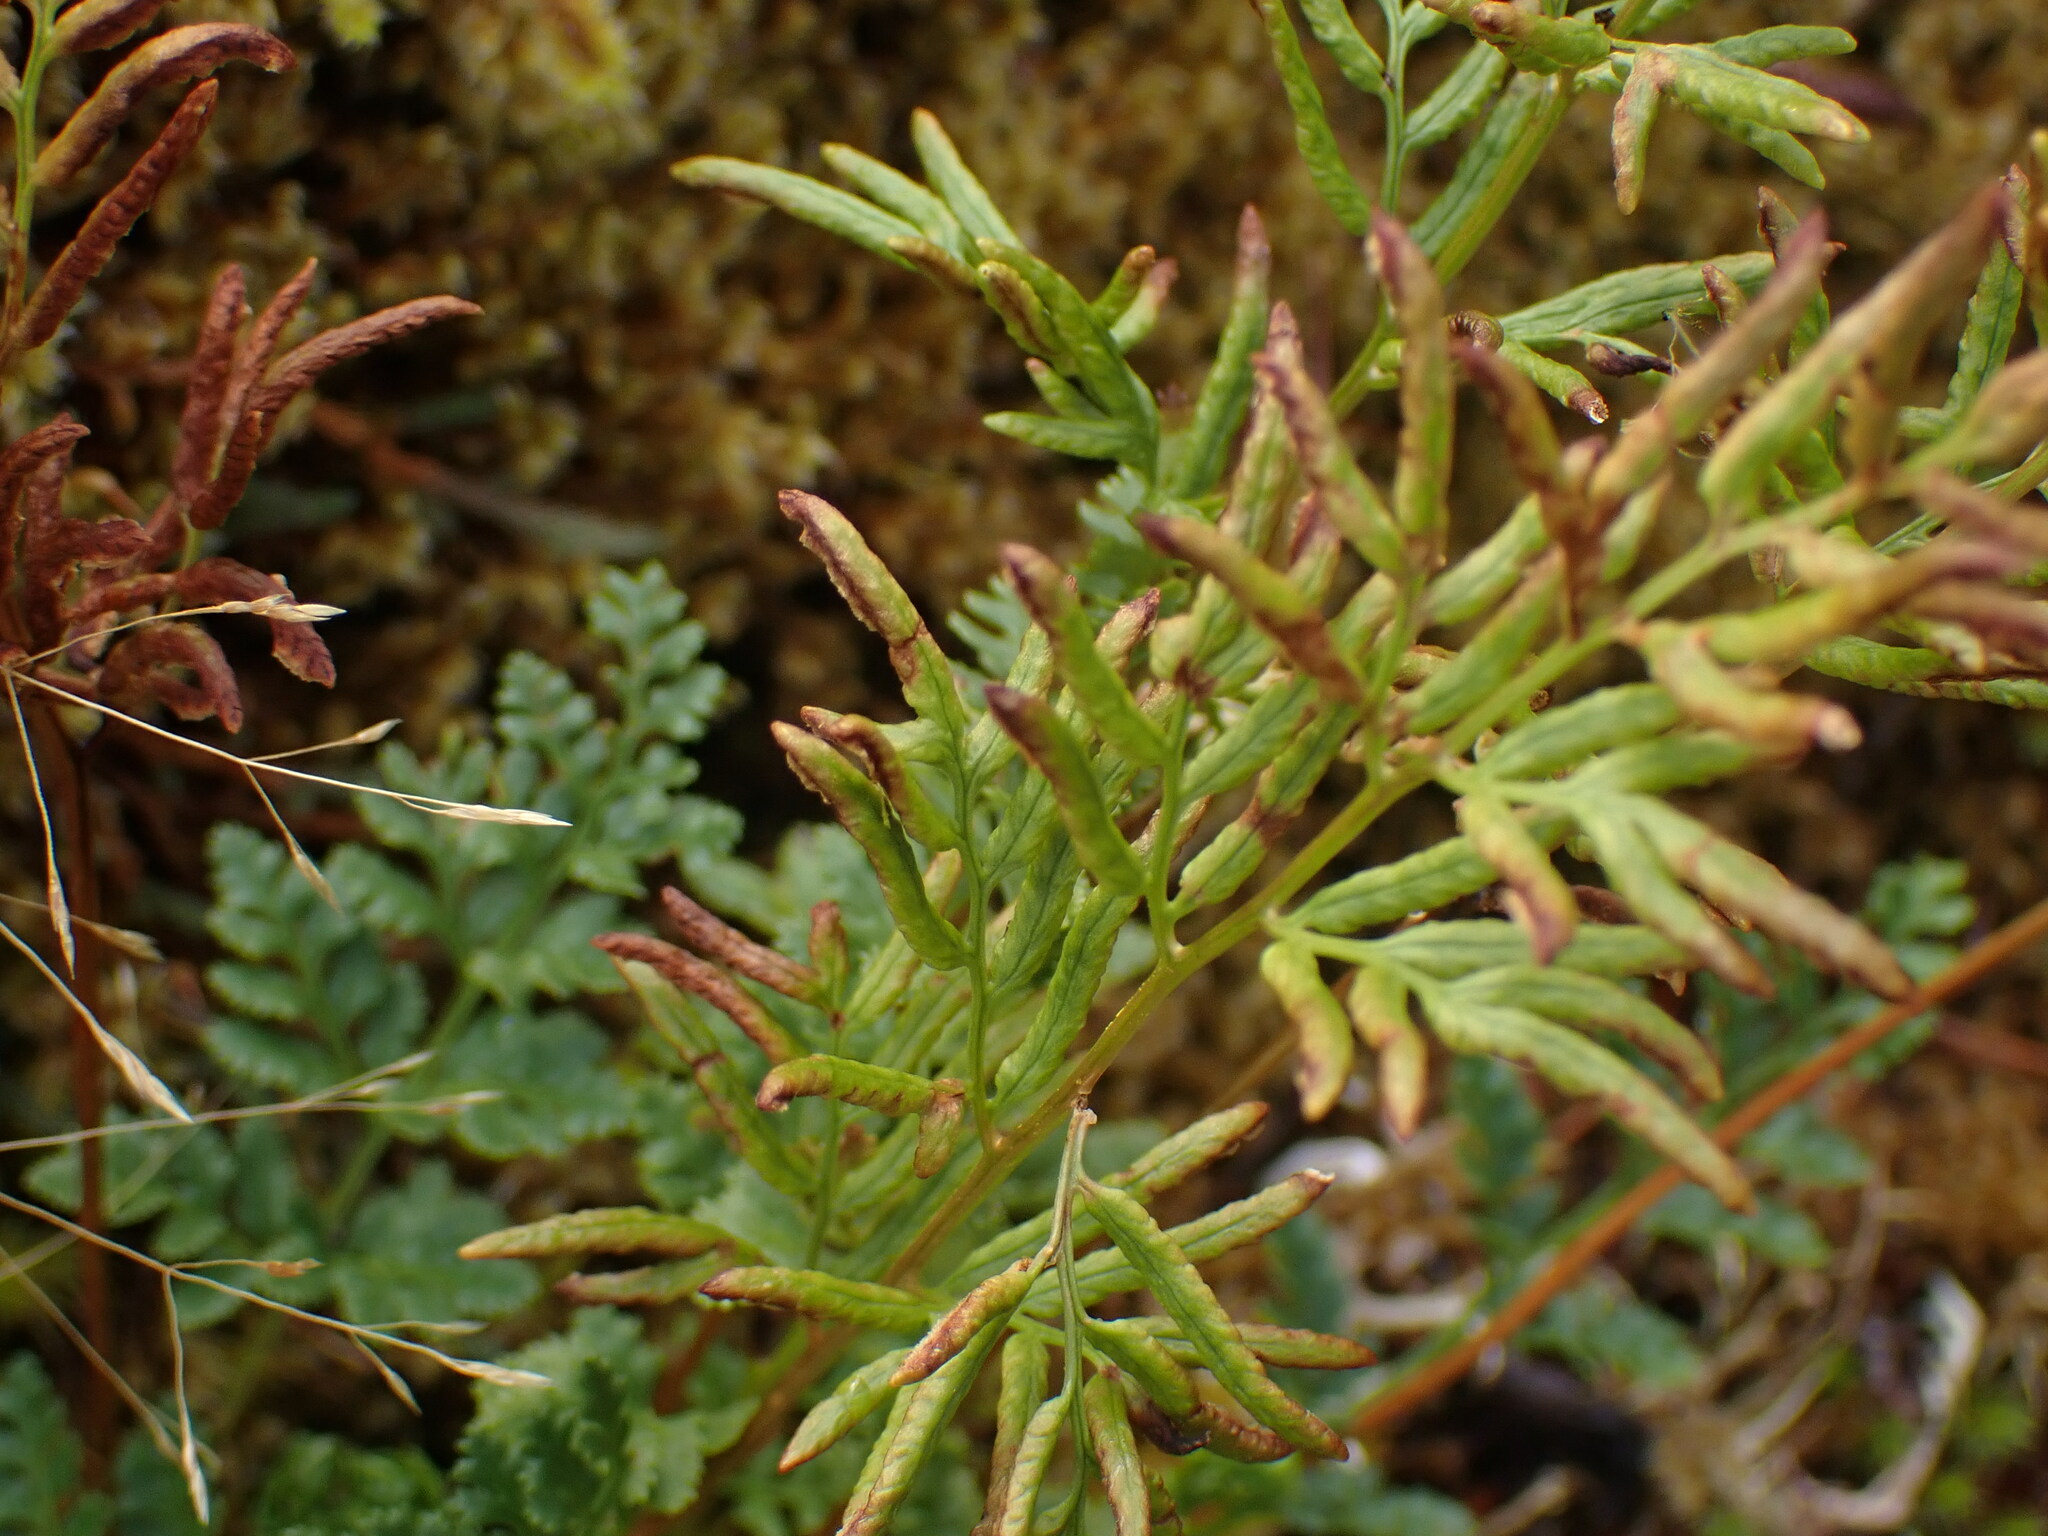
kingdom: Plantae
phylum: Tracheophyta
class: Polypodiopsida
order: Polypodiales
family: Pteridaceae
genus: Cryptogramma
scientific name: Cryptogramma acrostichoides
